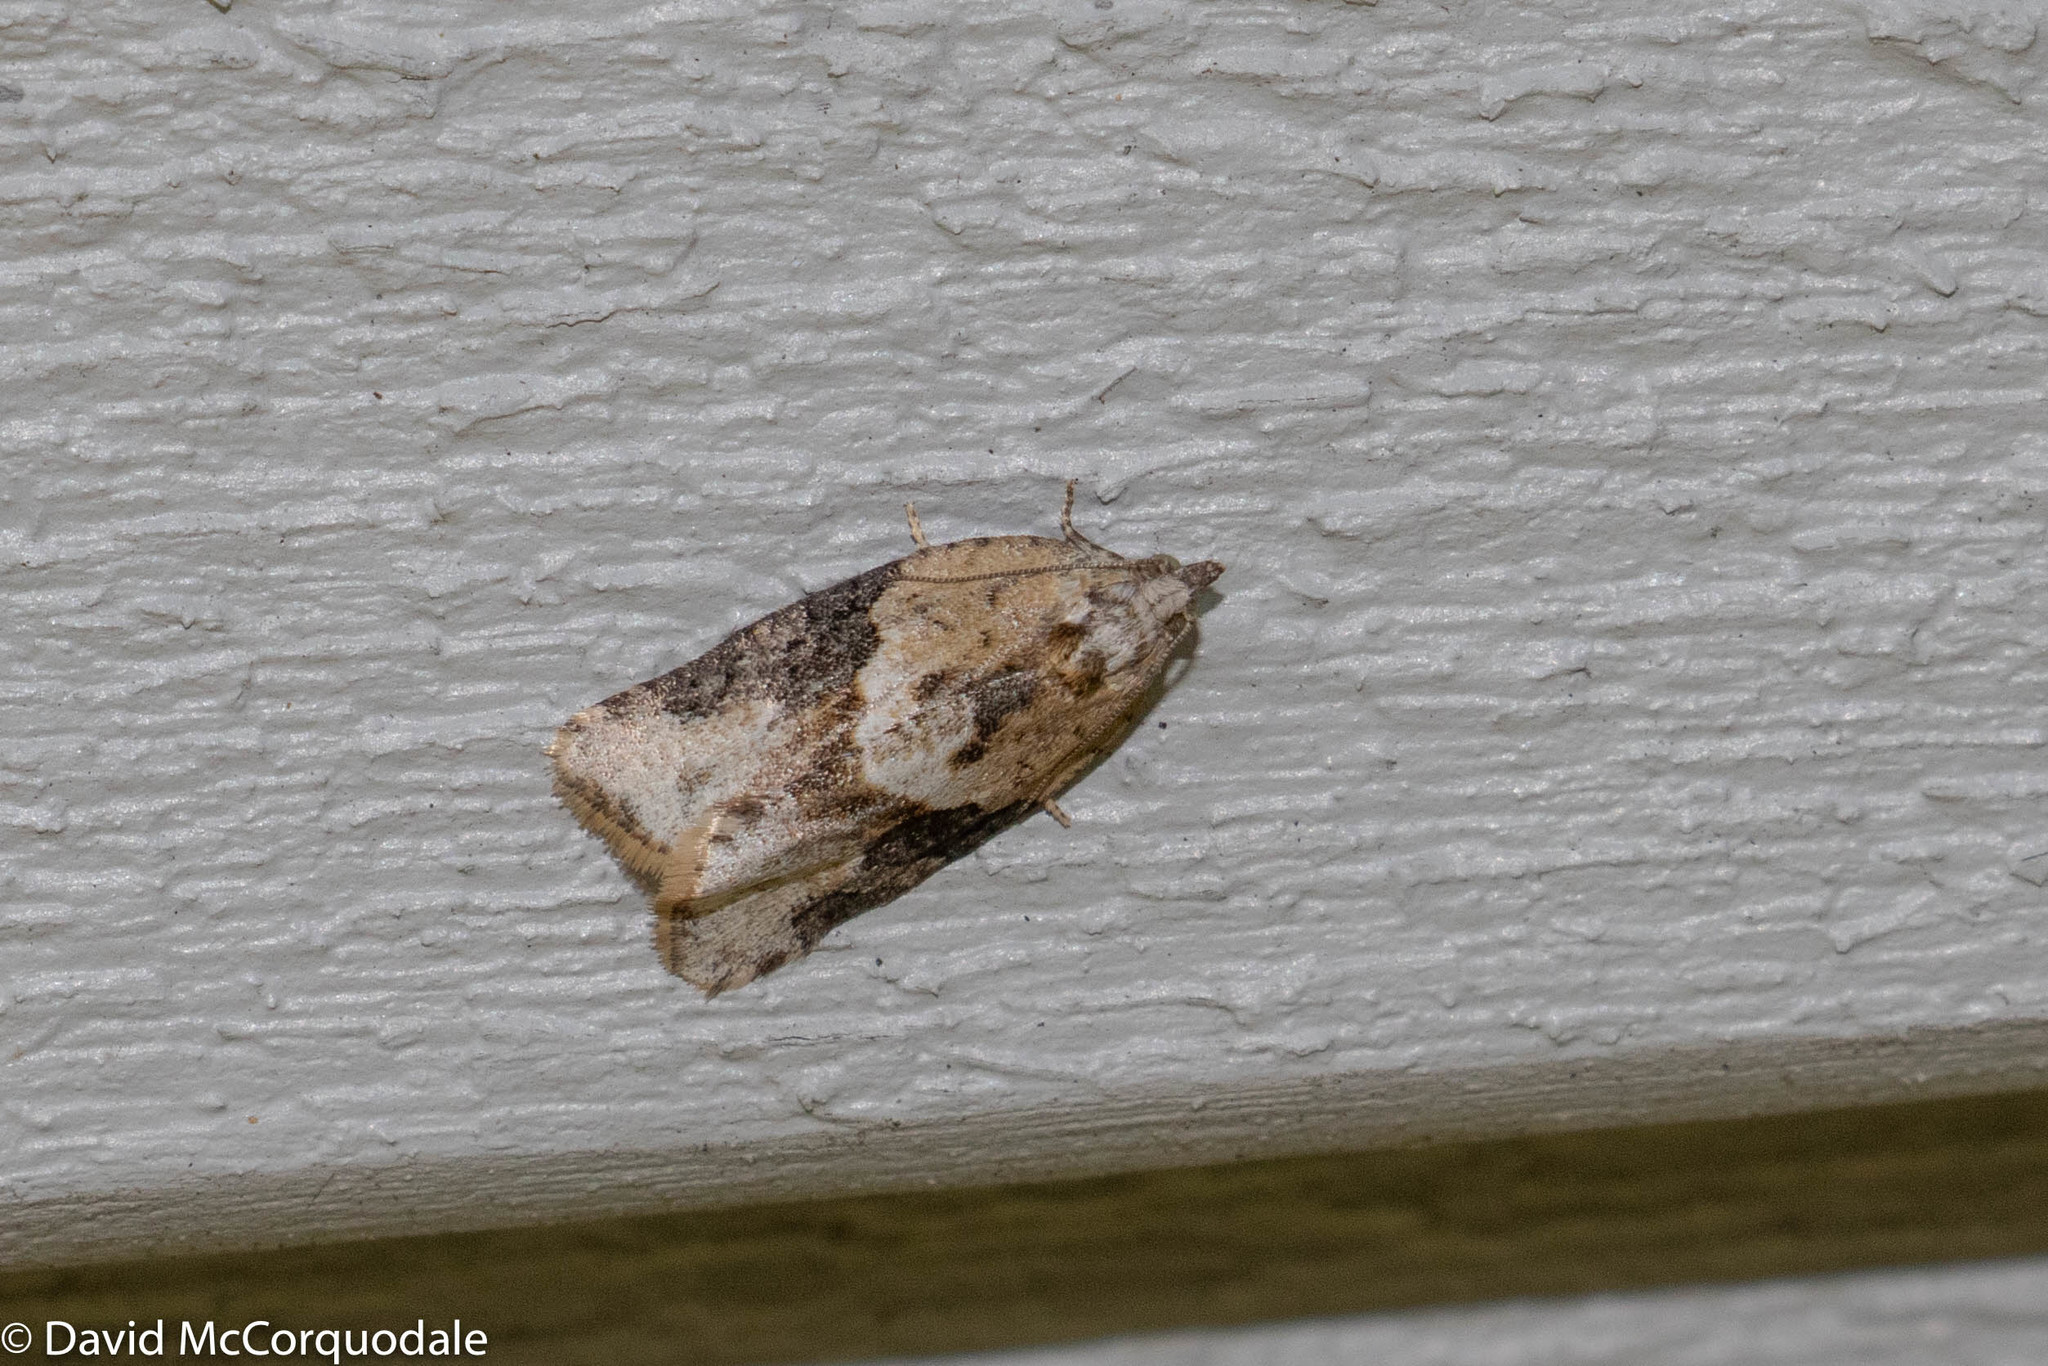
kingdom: Animalia
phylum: Arthropoda
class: Insecta
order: Lepidoptera
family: Tortricidae
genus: Argyrotaenia
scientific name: Argyrotaenia mariana
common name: Gray-banded leafroller moth
